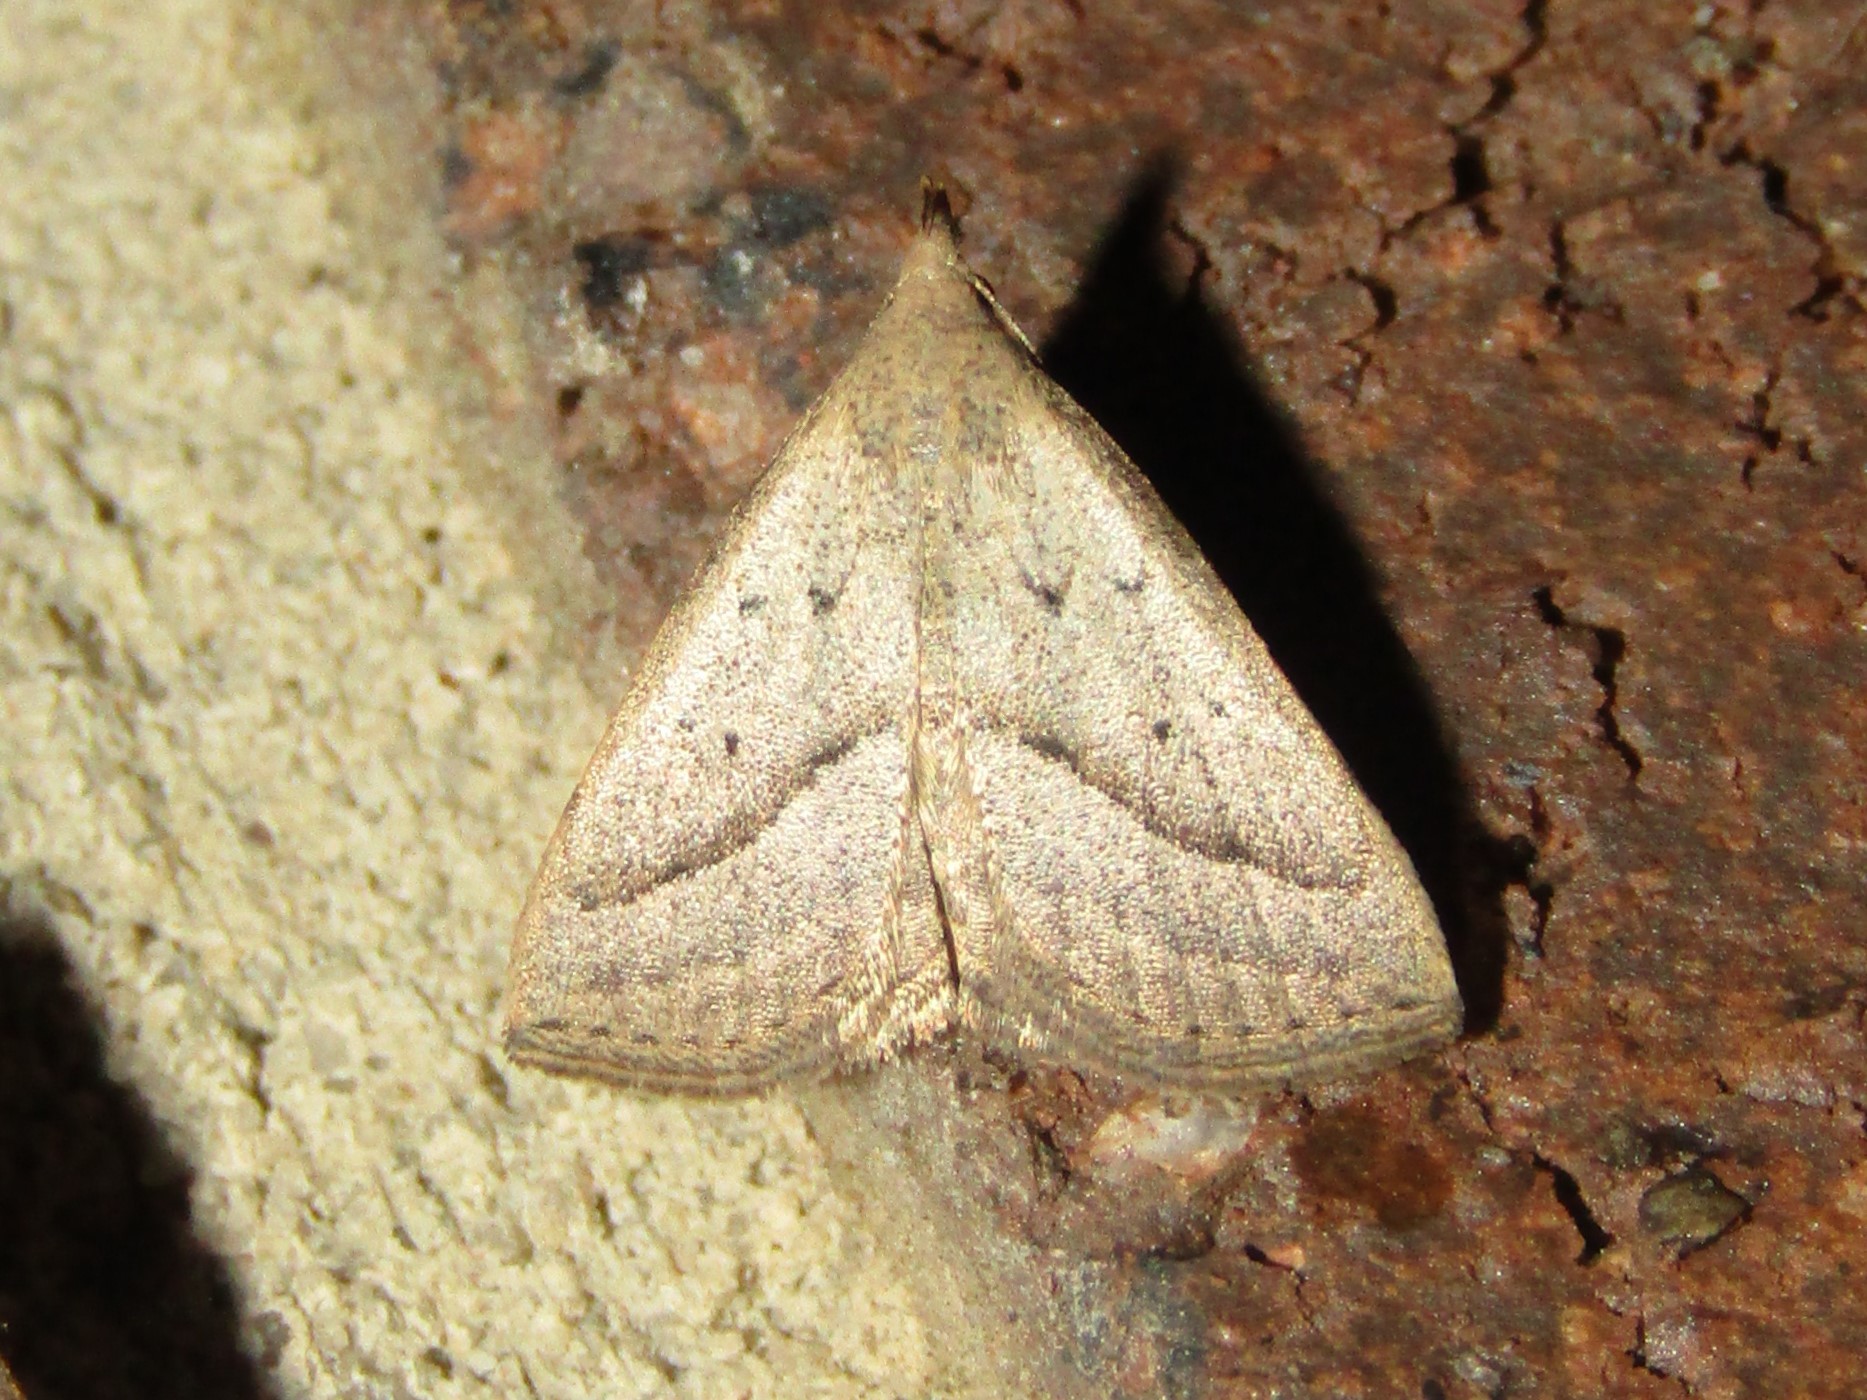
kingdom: Animalia
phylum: Arthropoda
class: Insecta
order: Lepidoptera
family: Erebidae
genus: Macrochilo
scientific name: Macrochilo hypocritalis
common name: Twin-dotted owlet
